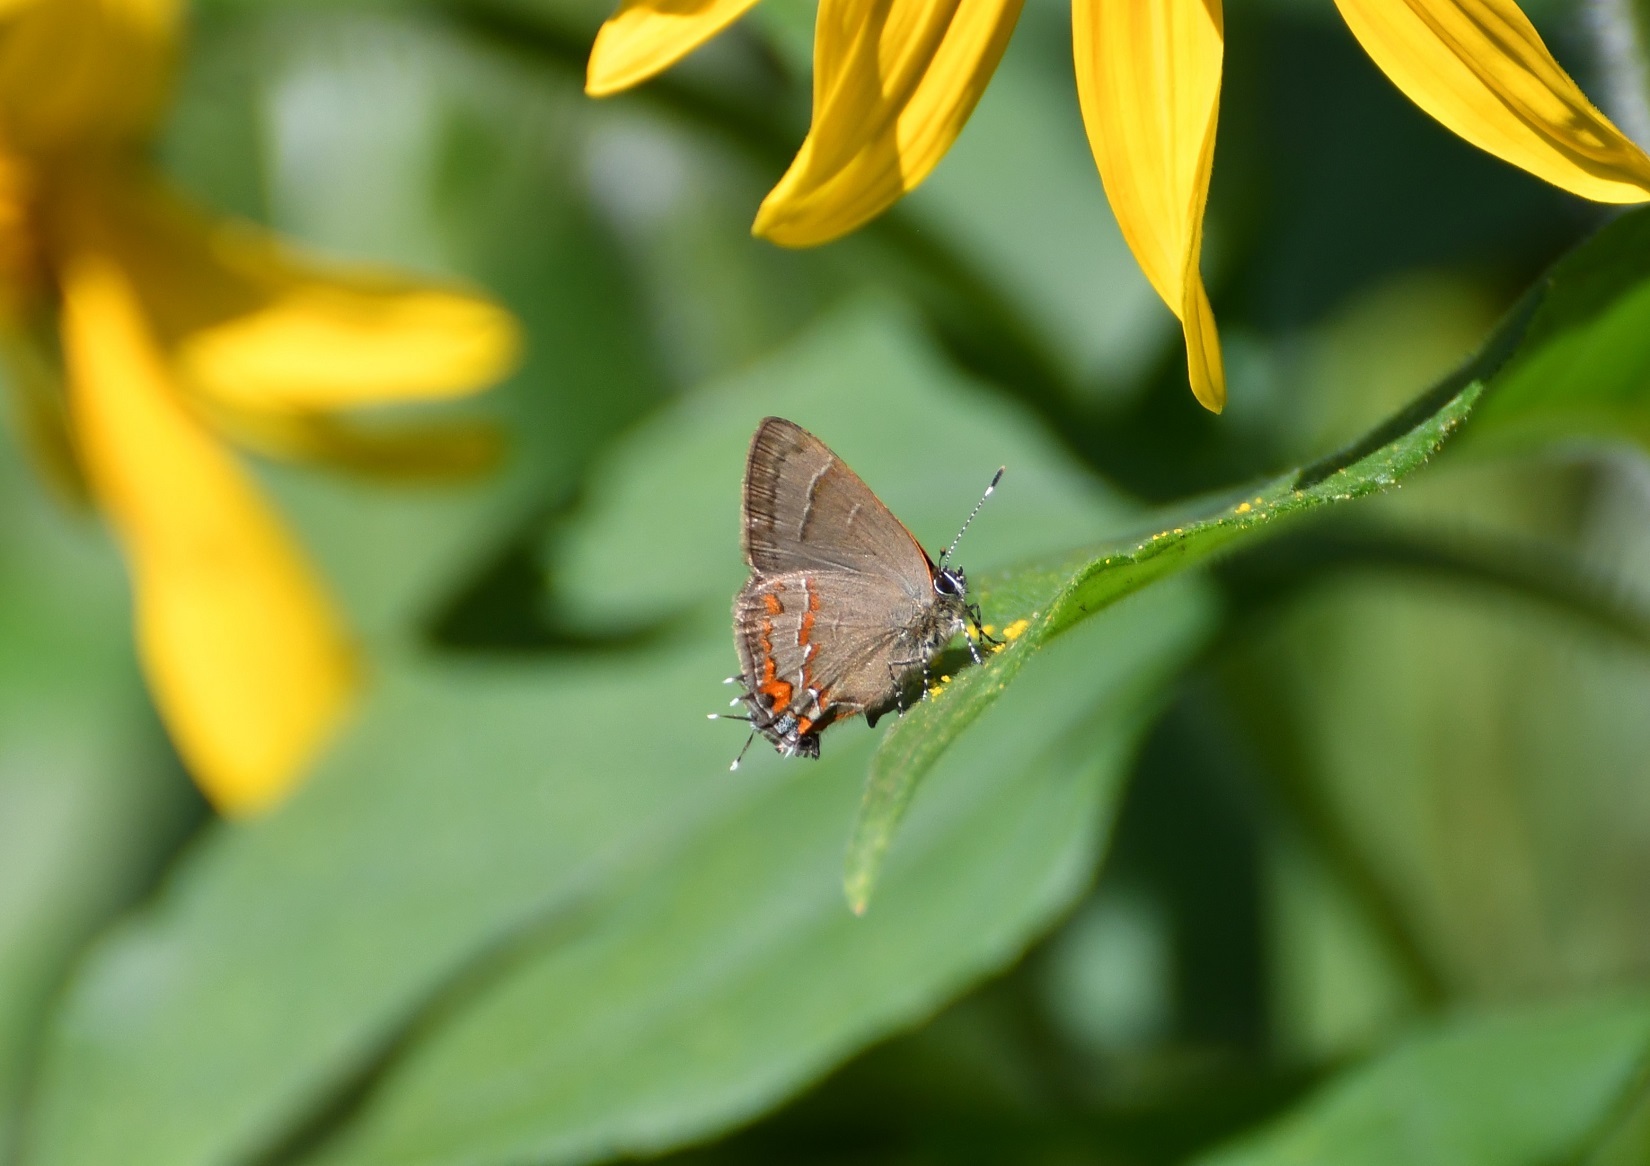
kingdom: Animalia
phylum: Arthropoda
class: Insecta
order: Lepidoptera
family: Lycaenidae
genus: Electrostrymon
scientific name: Electrostrymon
